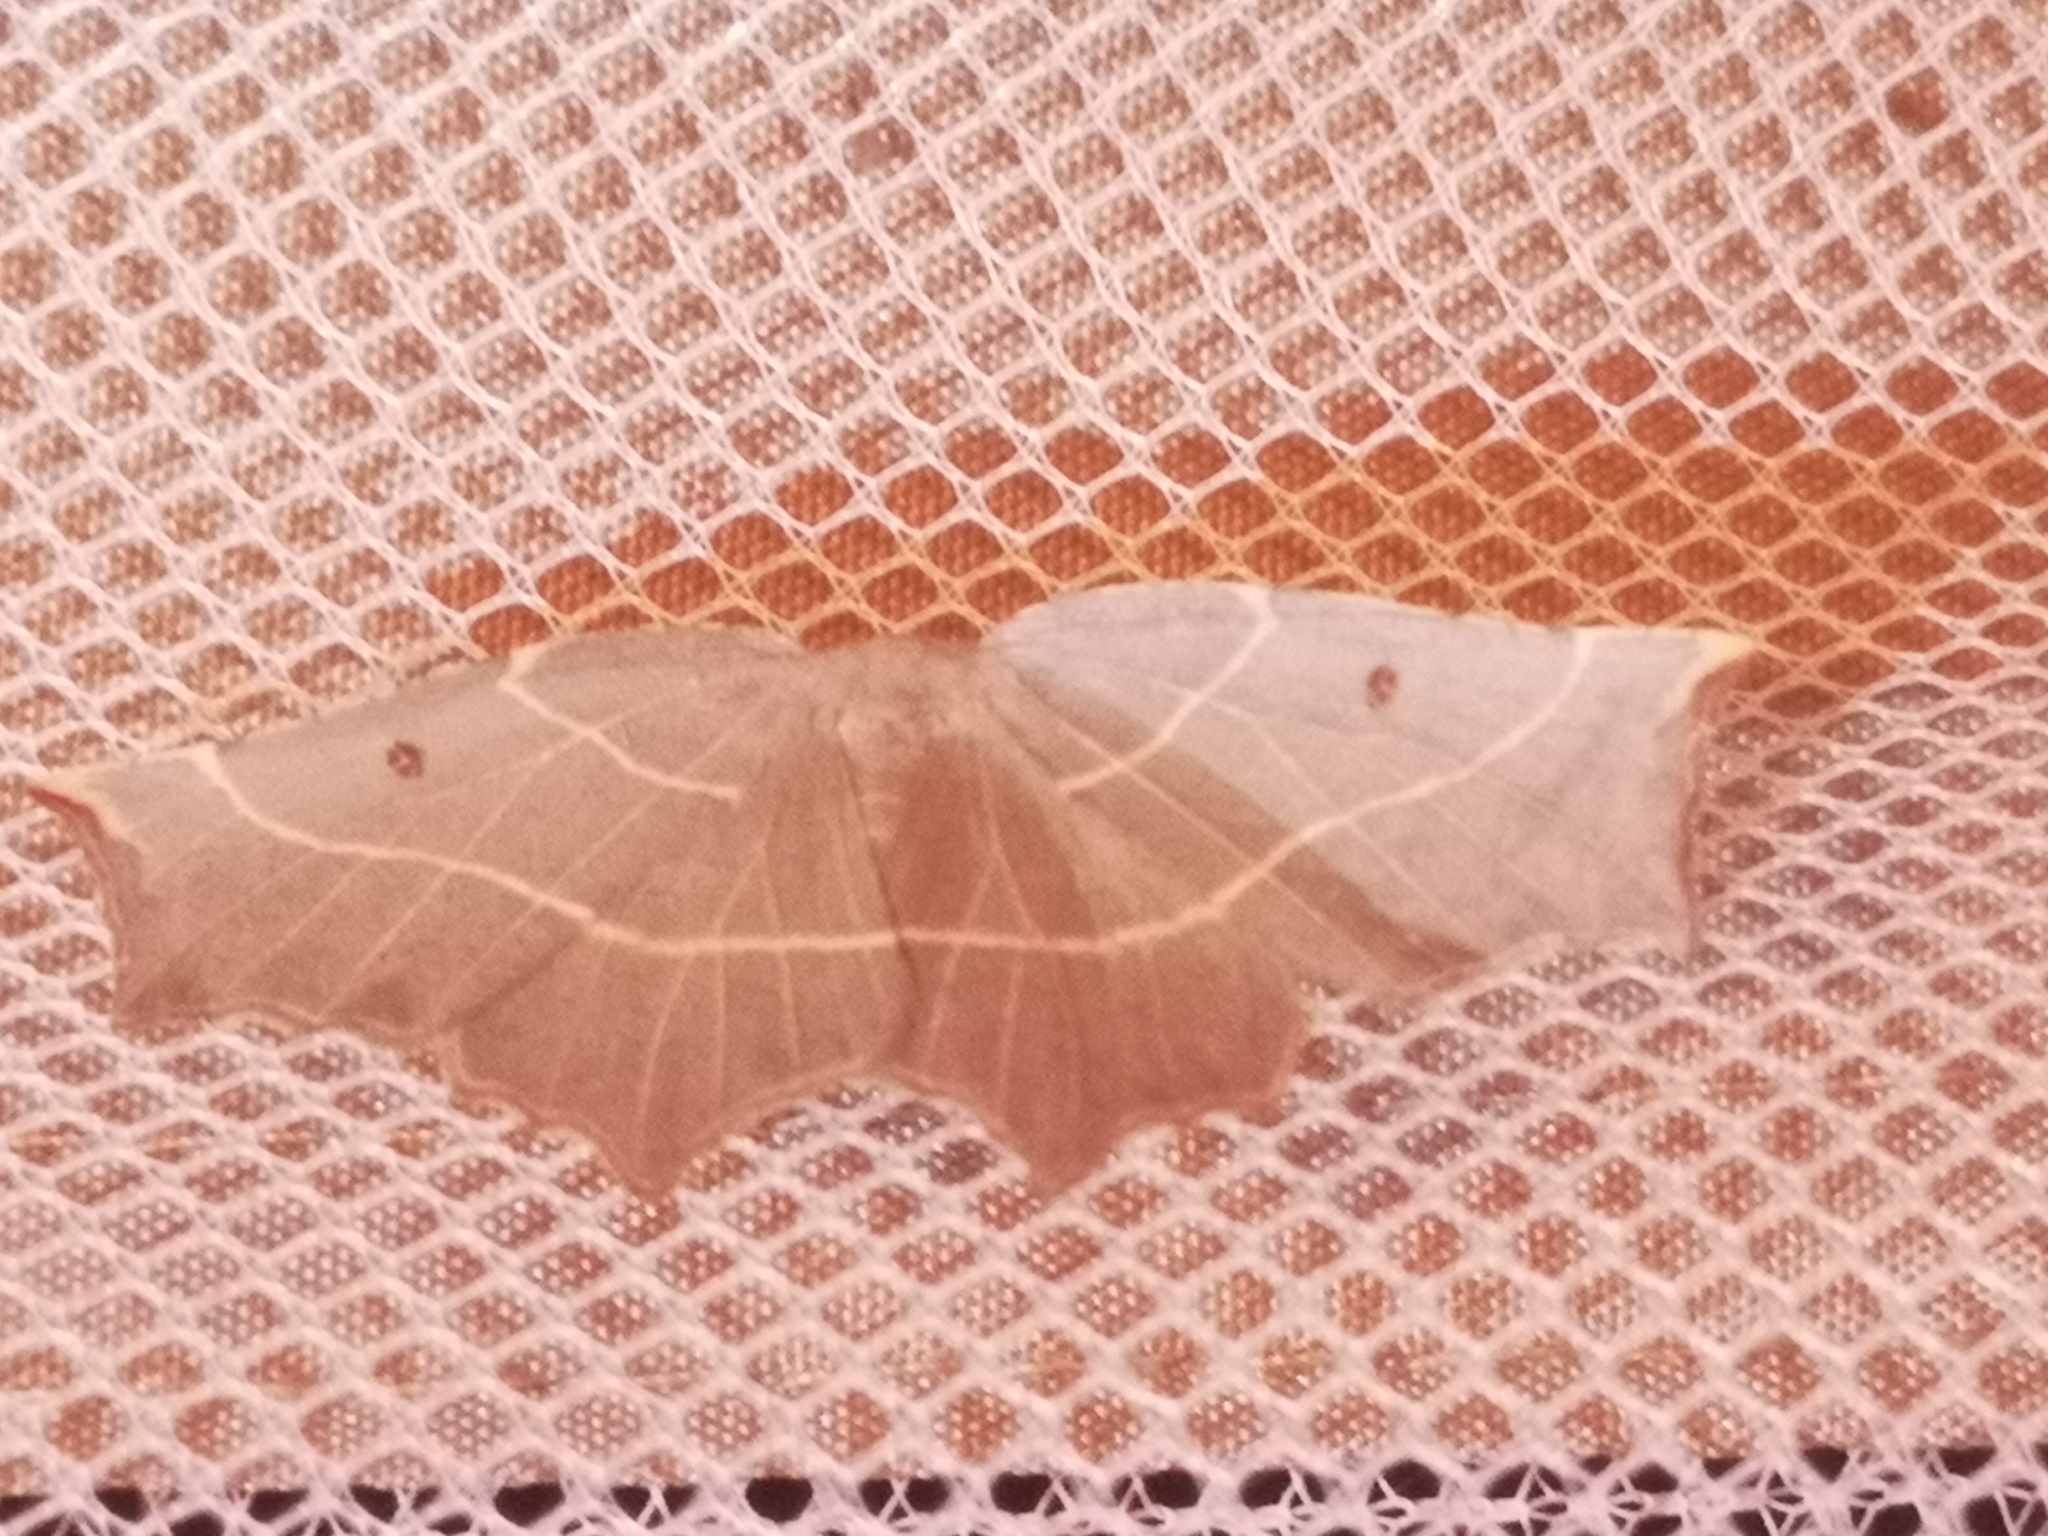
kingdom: Animalia
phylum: Arthropoda
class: Insecta
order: Lepidoptera
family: Geometridae
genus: Metanema
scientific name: Metanema inatomaria
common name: Pale metanema
